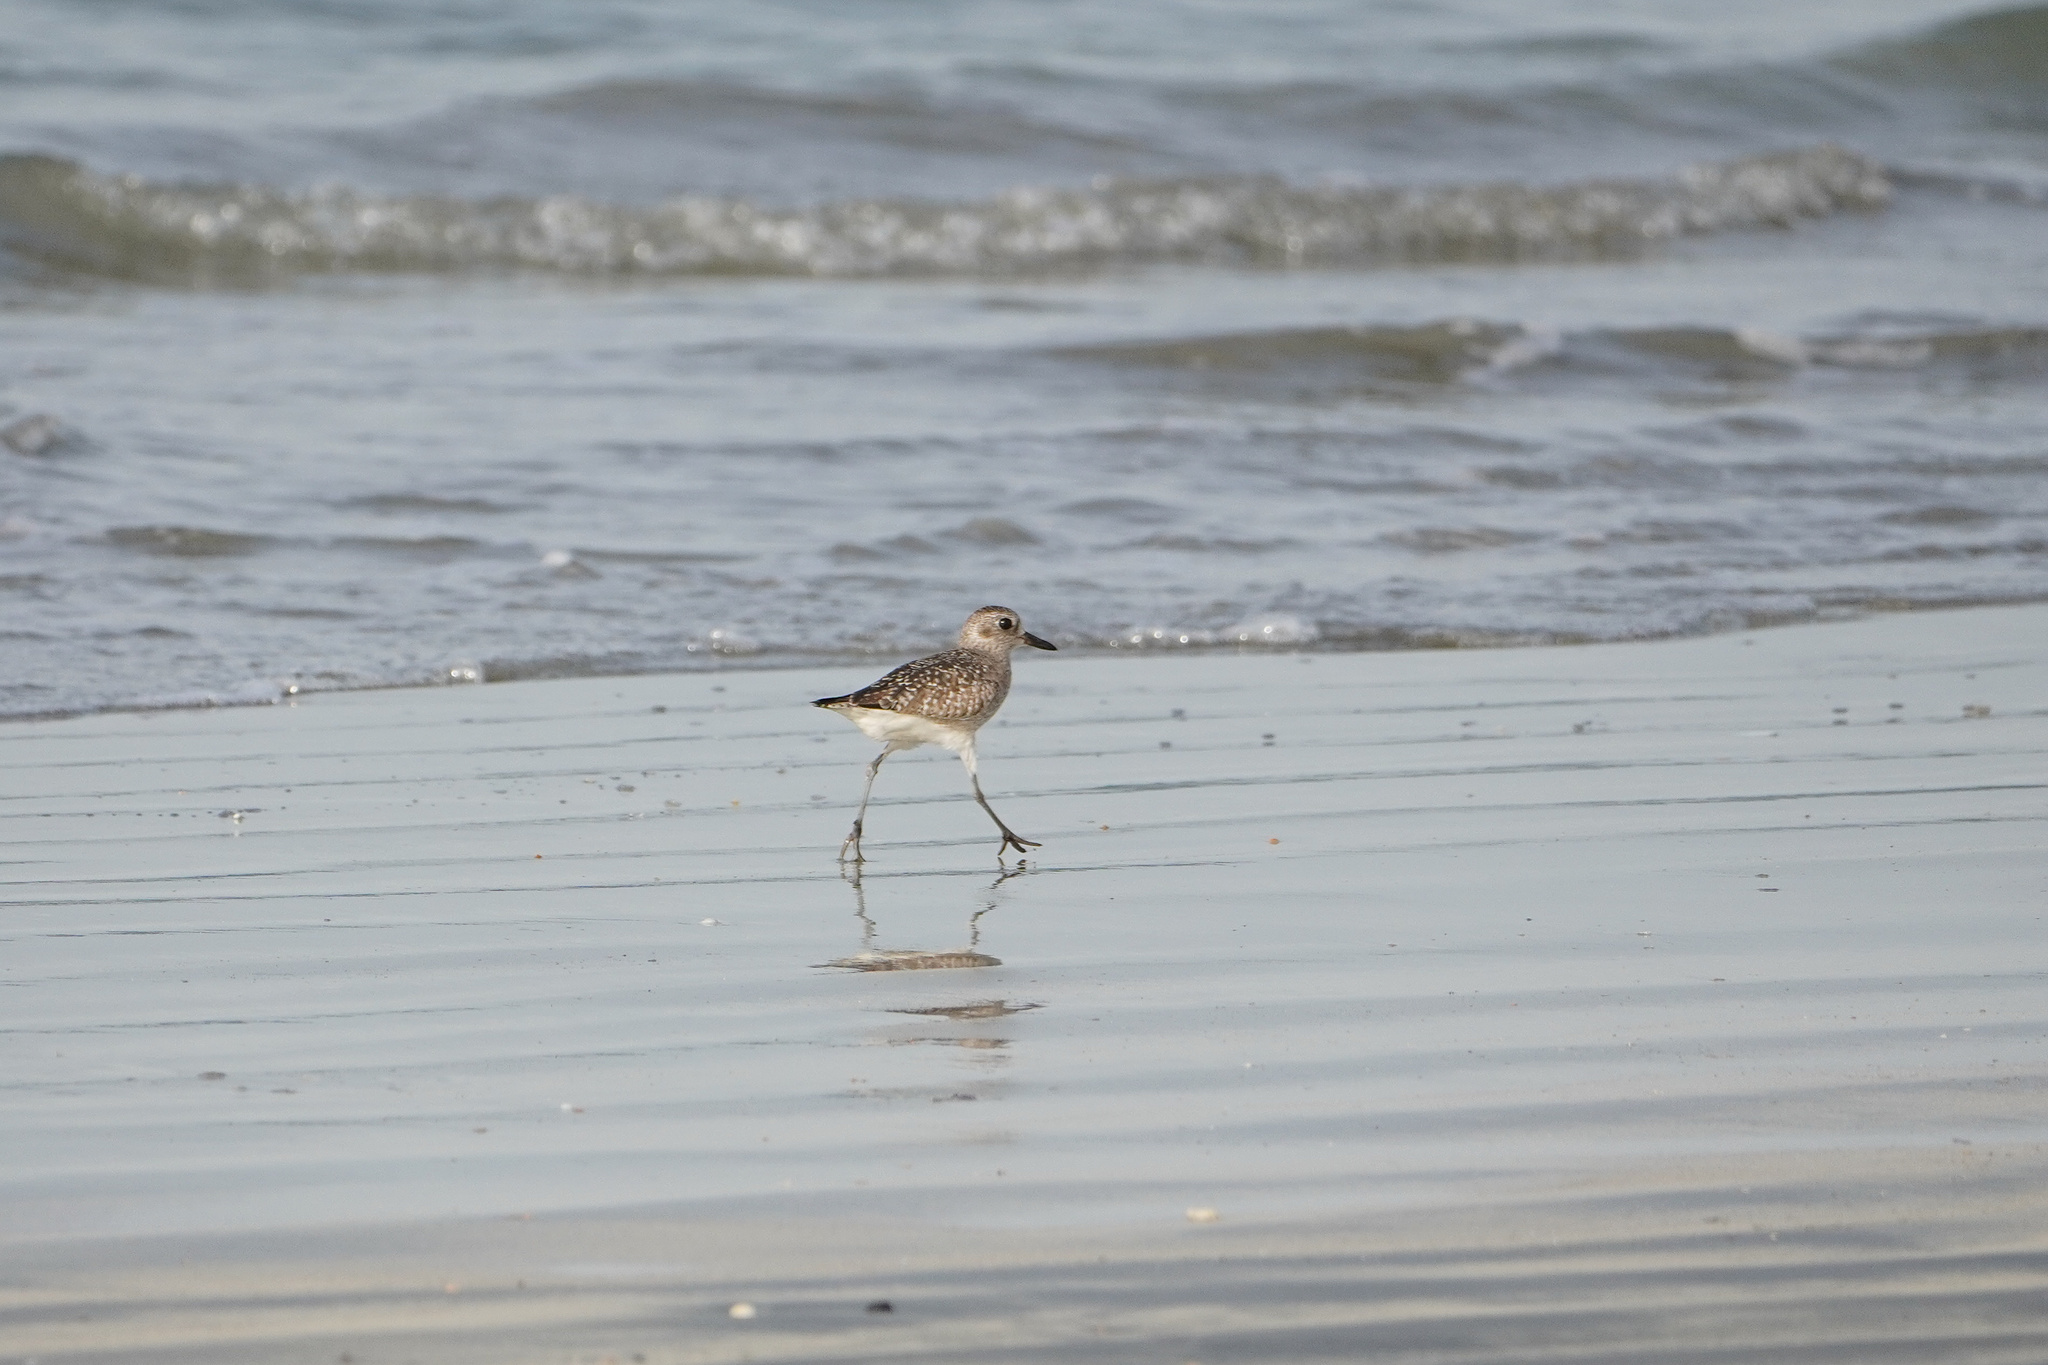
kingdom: Animalia
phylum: Chordata
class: Aves
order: Charadriiformes
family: Charadriidae
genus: Pluvialis
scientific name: Pluvialis squatarola
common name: Grey plover
